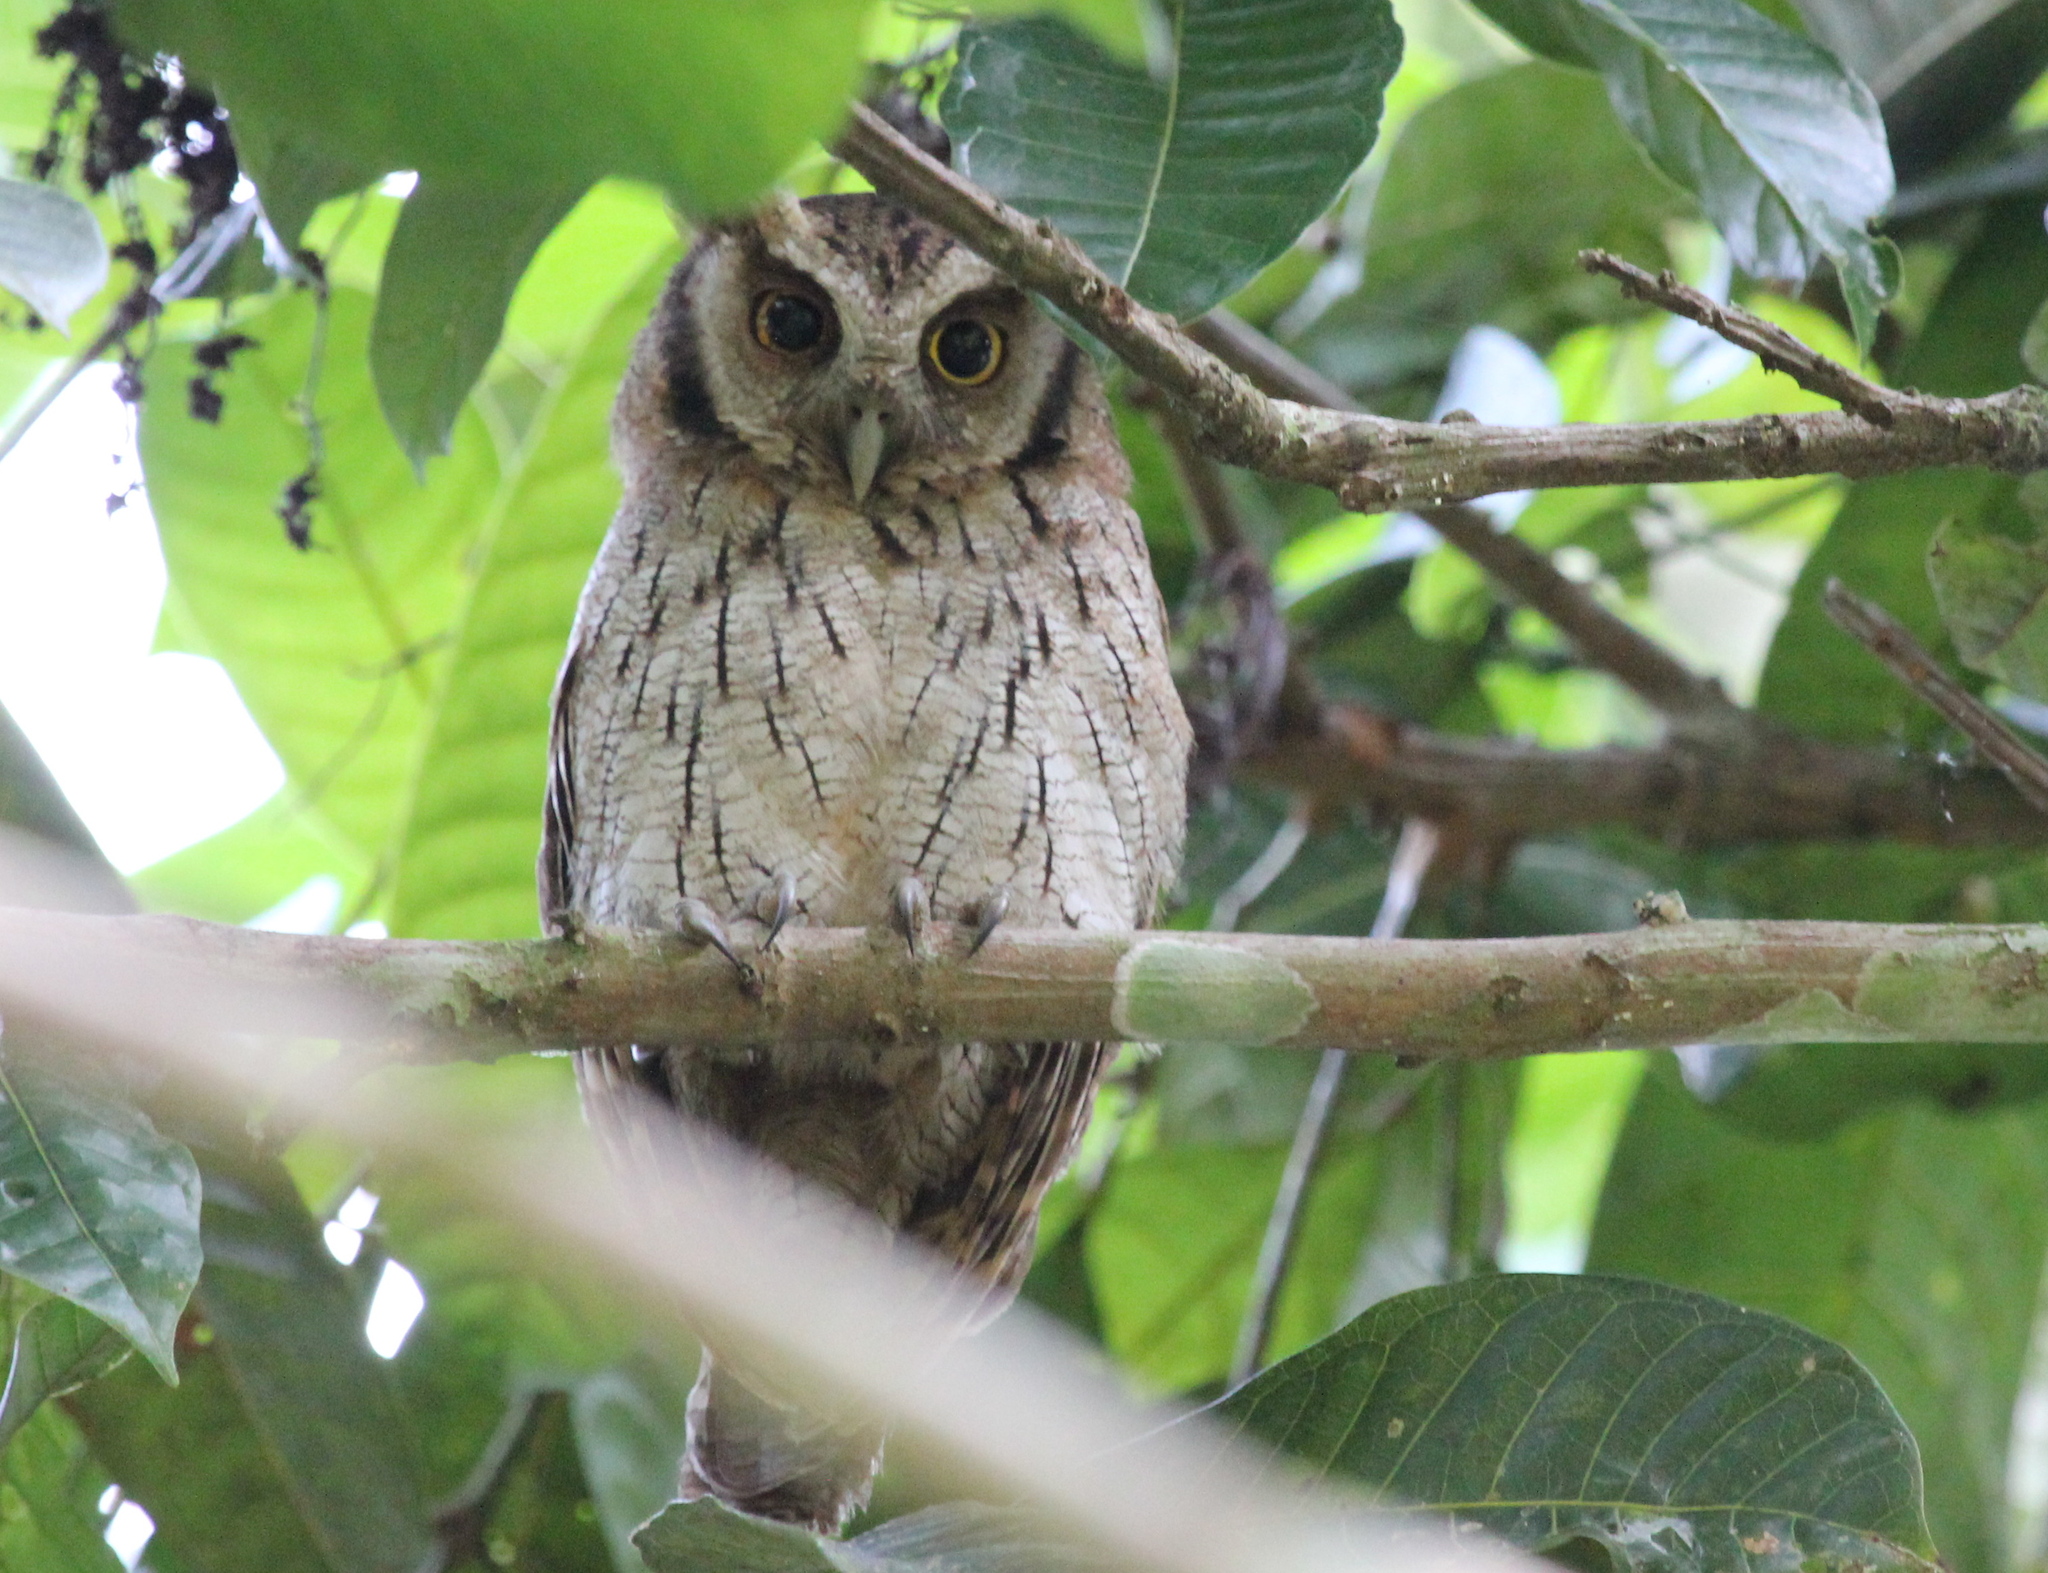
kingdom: Animalia
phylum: Chordata
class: Aves
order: Strigiformes
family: Strigidae
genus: Megascops
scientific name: Megascops choliba
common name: Tropical screech-owl
